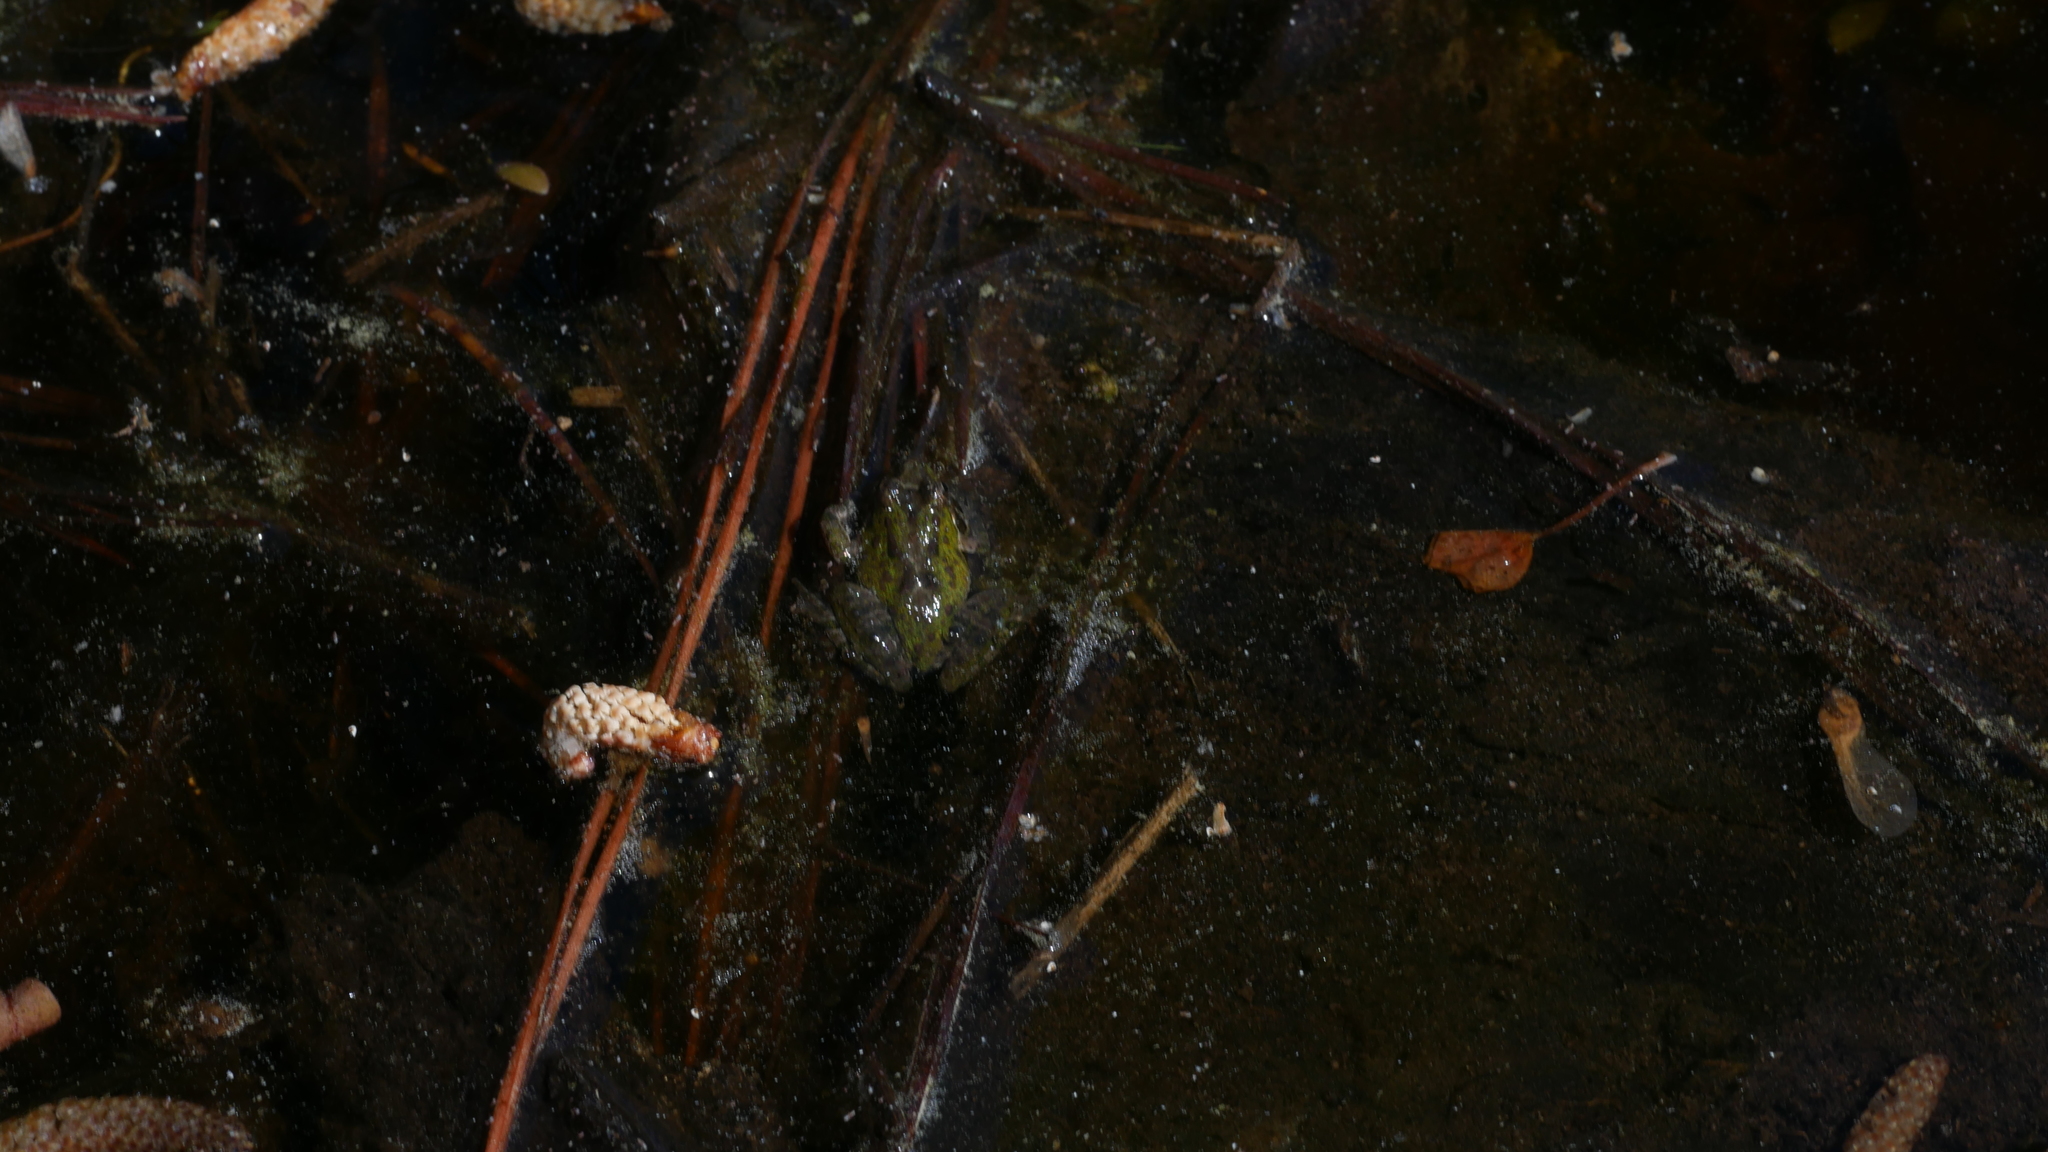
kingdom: Animalia
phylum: Chordata
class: Amphibia
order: Anura
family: Hylidae
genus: Acris
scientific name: Acris crepitans
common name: Northern cricket frog
